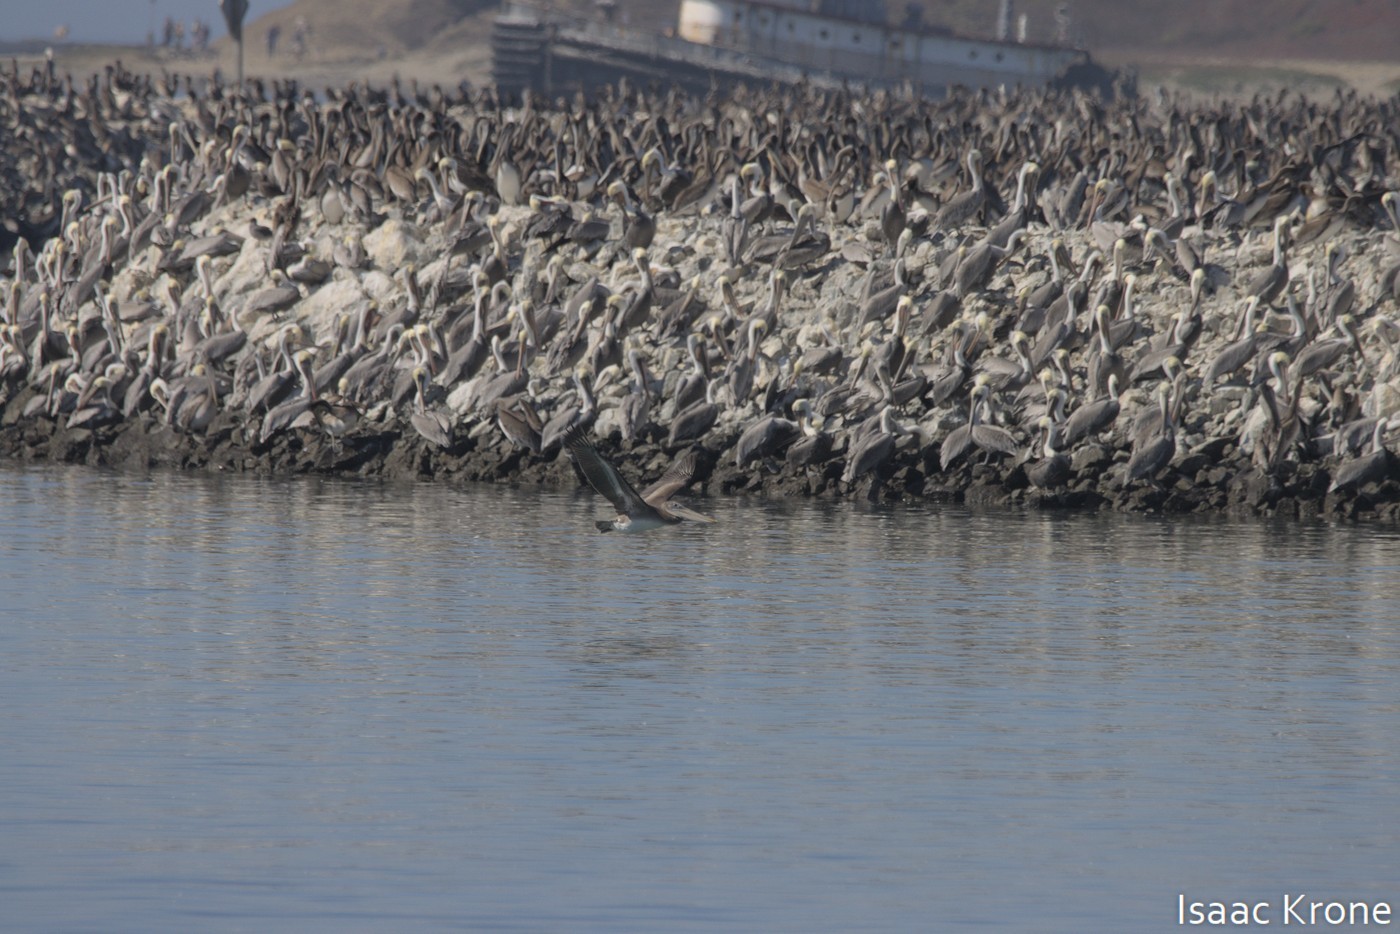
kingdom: Animalia
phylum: Chordata
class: Aves
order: Pelecaniformes
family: Pelecanidae
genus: Pelecanus
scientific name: Pelecanus occidentalis
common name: Brown pelican
